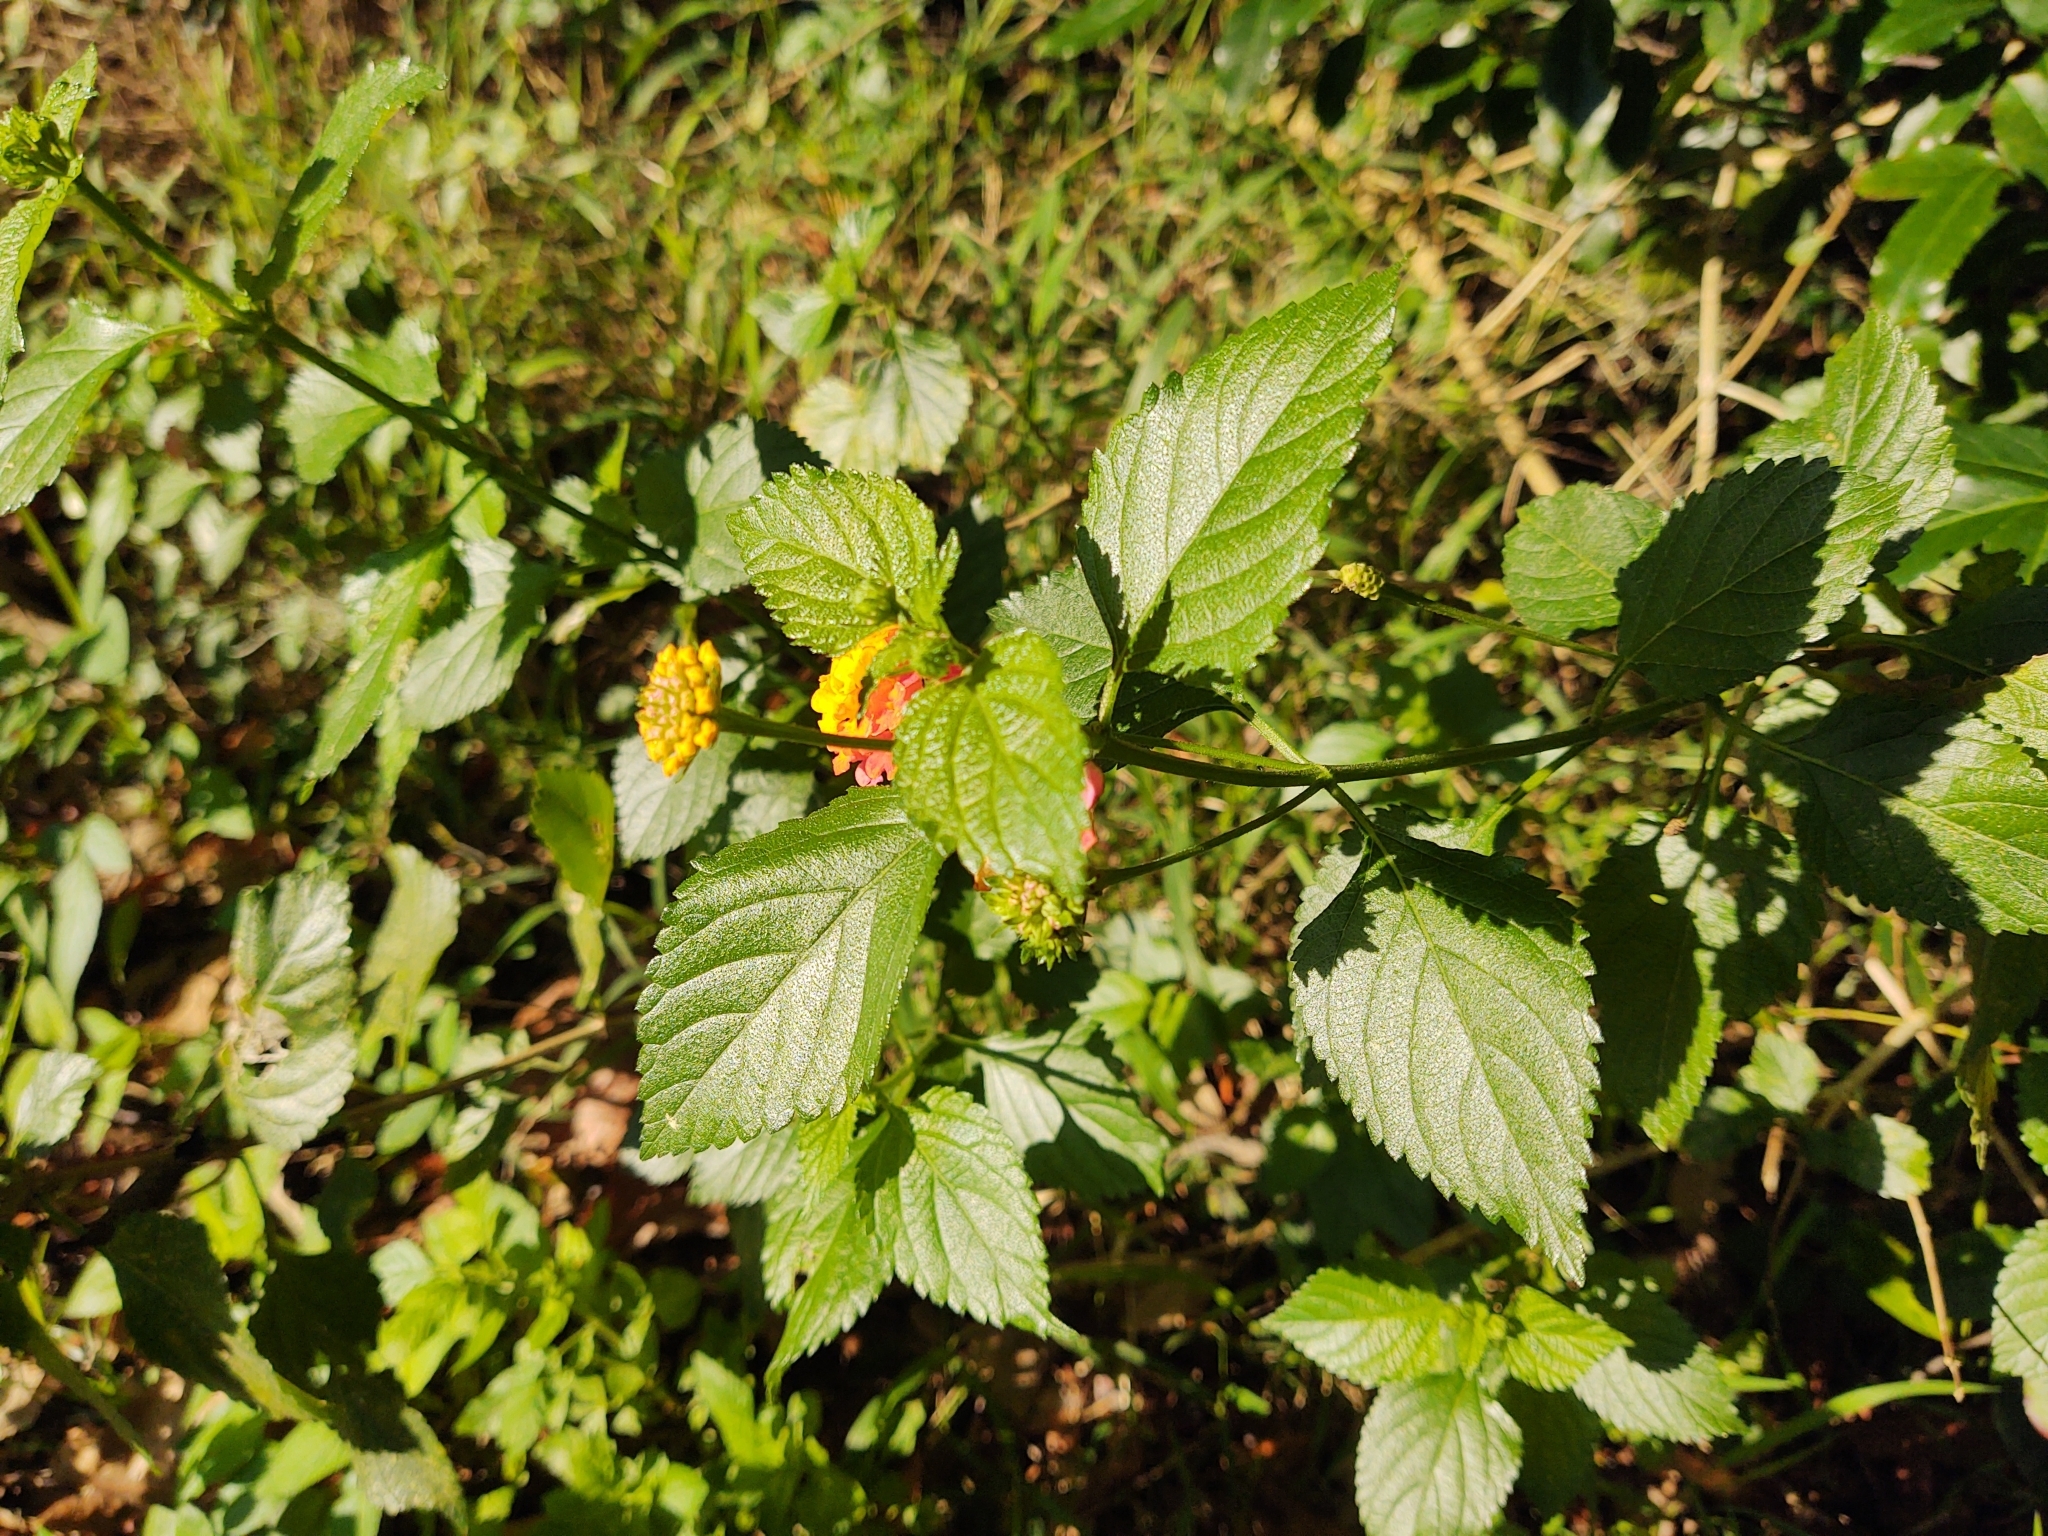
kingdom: Plantae
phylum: Tracheophyta
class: Magnoliopsida
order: Lamiales
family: Verbenaceae
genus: Lantana
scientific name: Lantana camara
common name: Lantana
